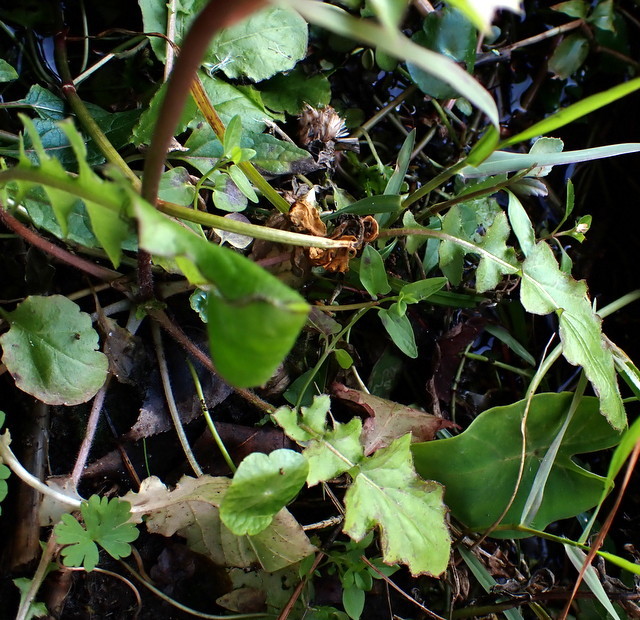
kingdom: Plantae
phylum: Tracheophyta
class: Magnoliopsida
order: Asterales
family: Asteraceae
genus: Youngia
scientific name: Youngia japonica
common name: Oriental false hawksbeard
